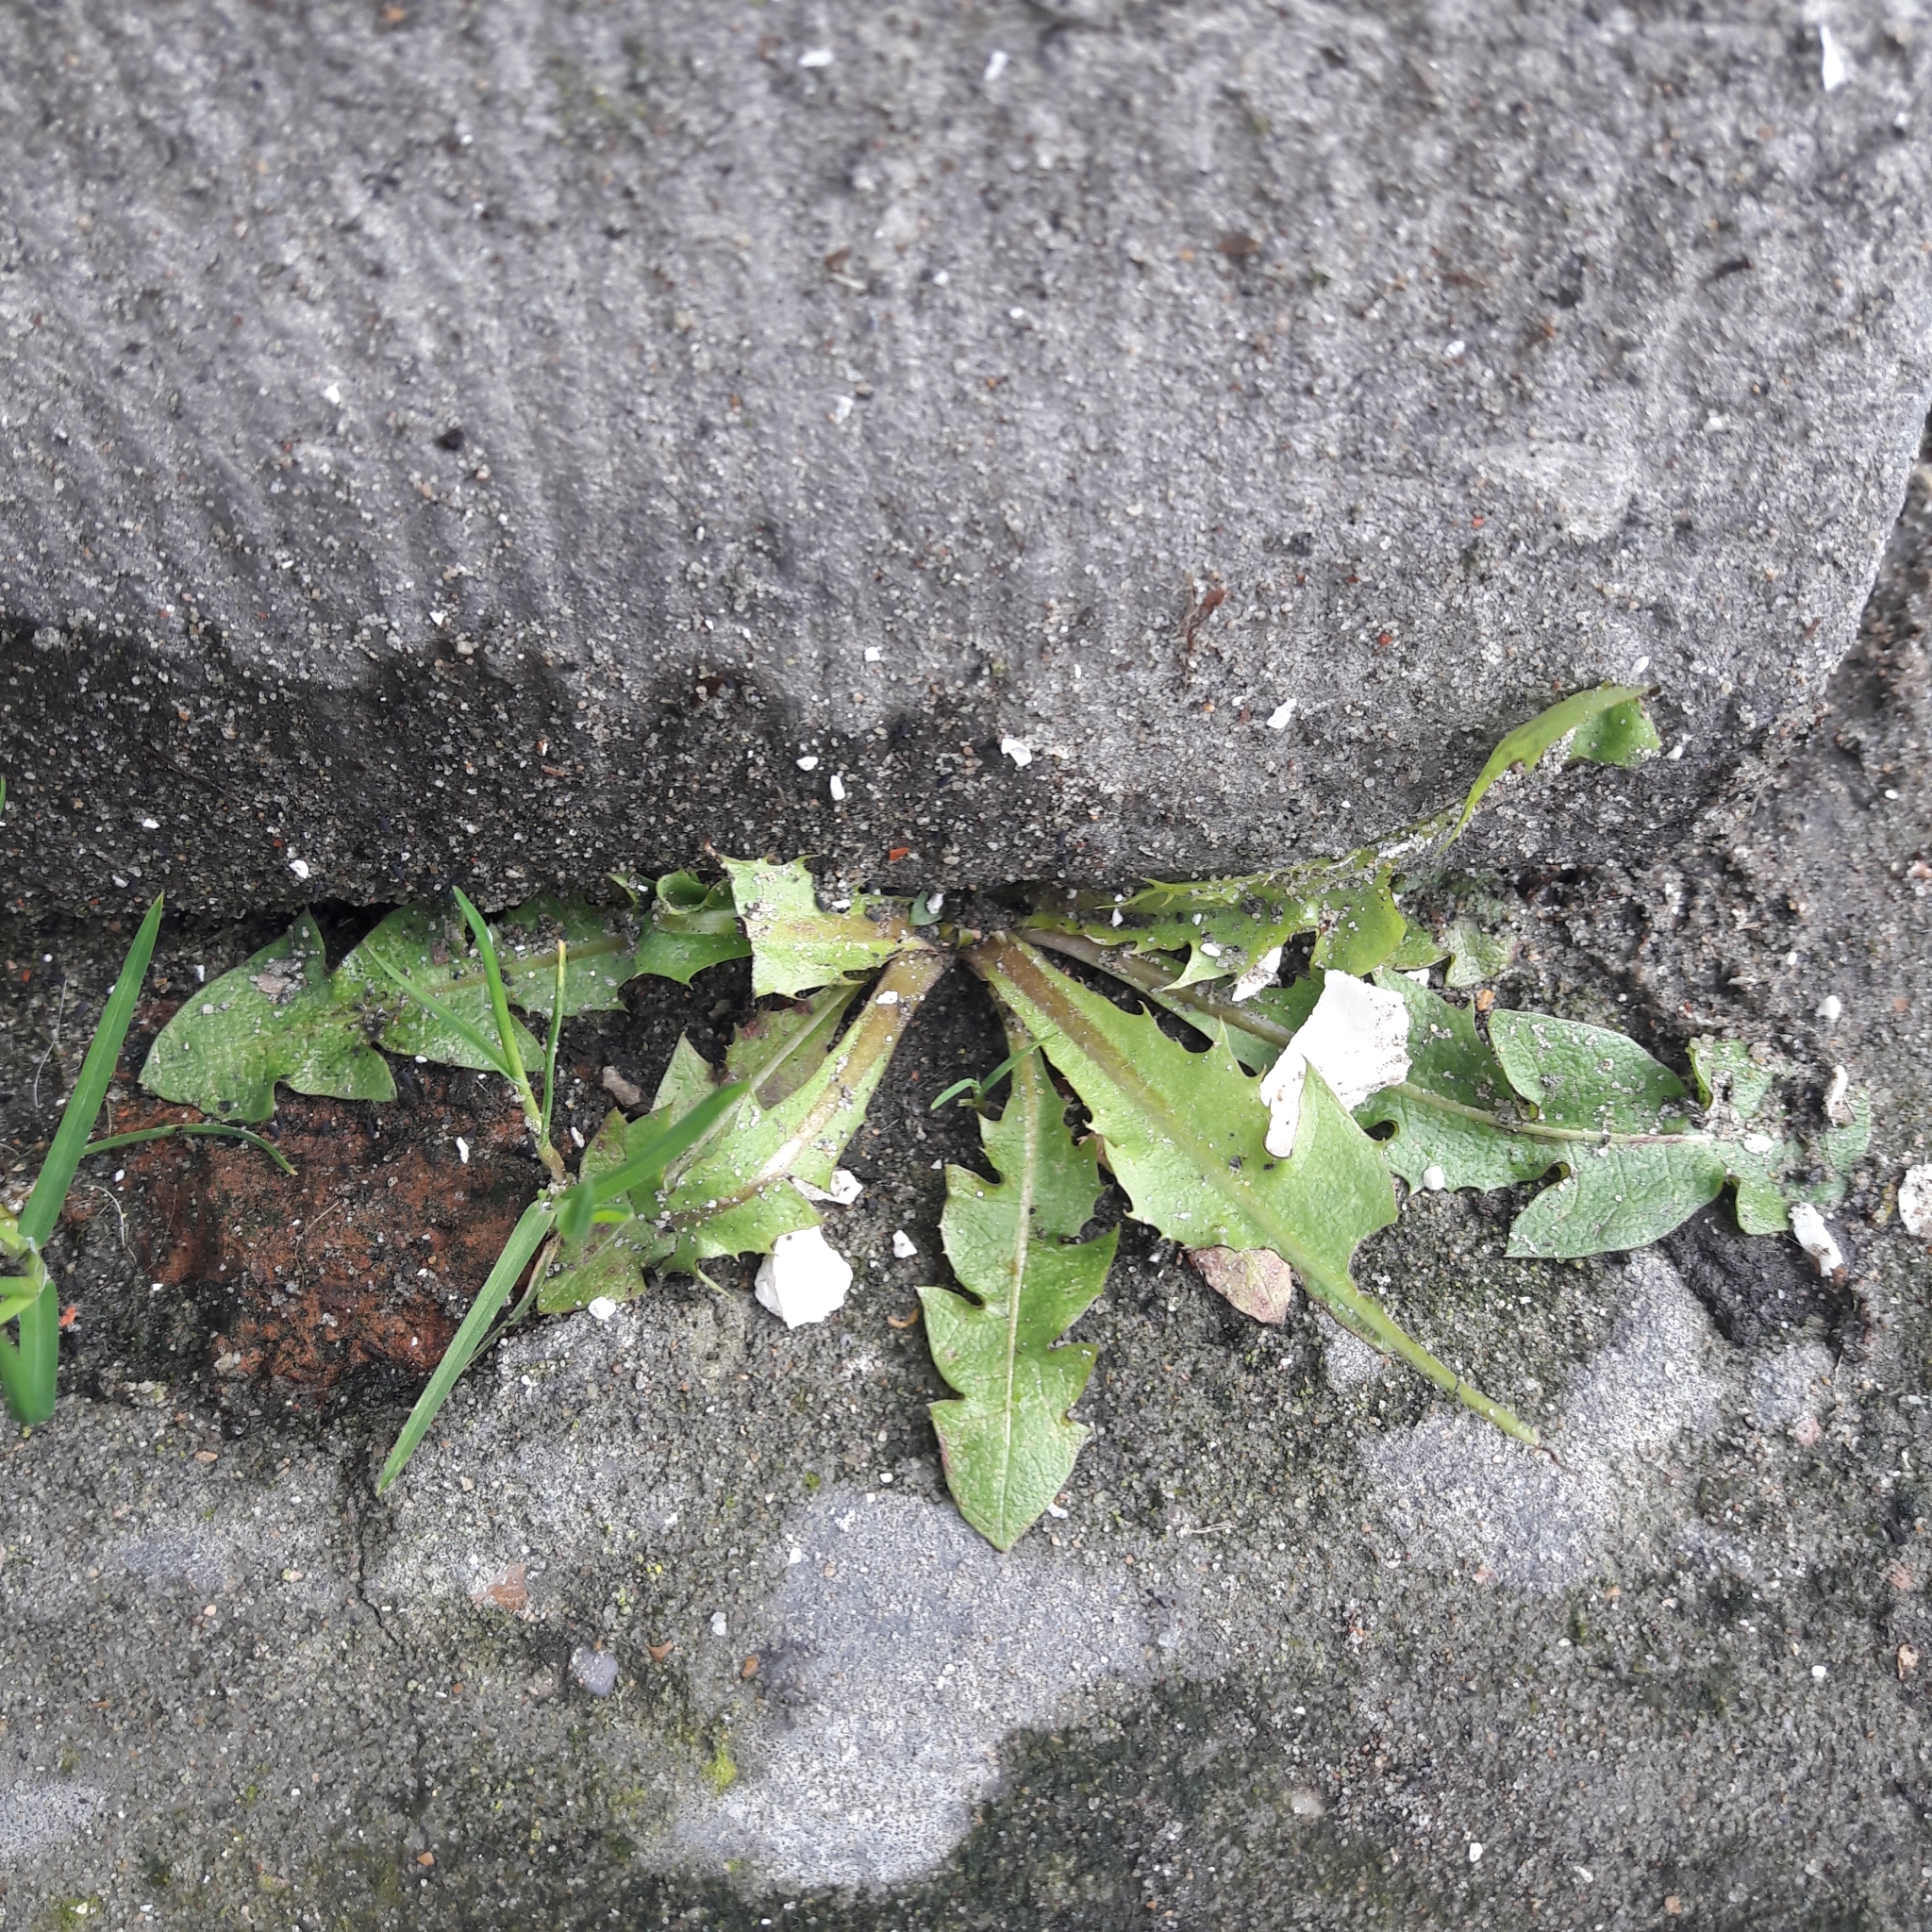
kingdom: Plantae
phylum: Tracheophyta
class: Magnoliopsida
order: Asterales
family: Asteraceae
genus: Taraxacum
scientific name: Taraxacum officinale
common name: Common dandelion
